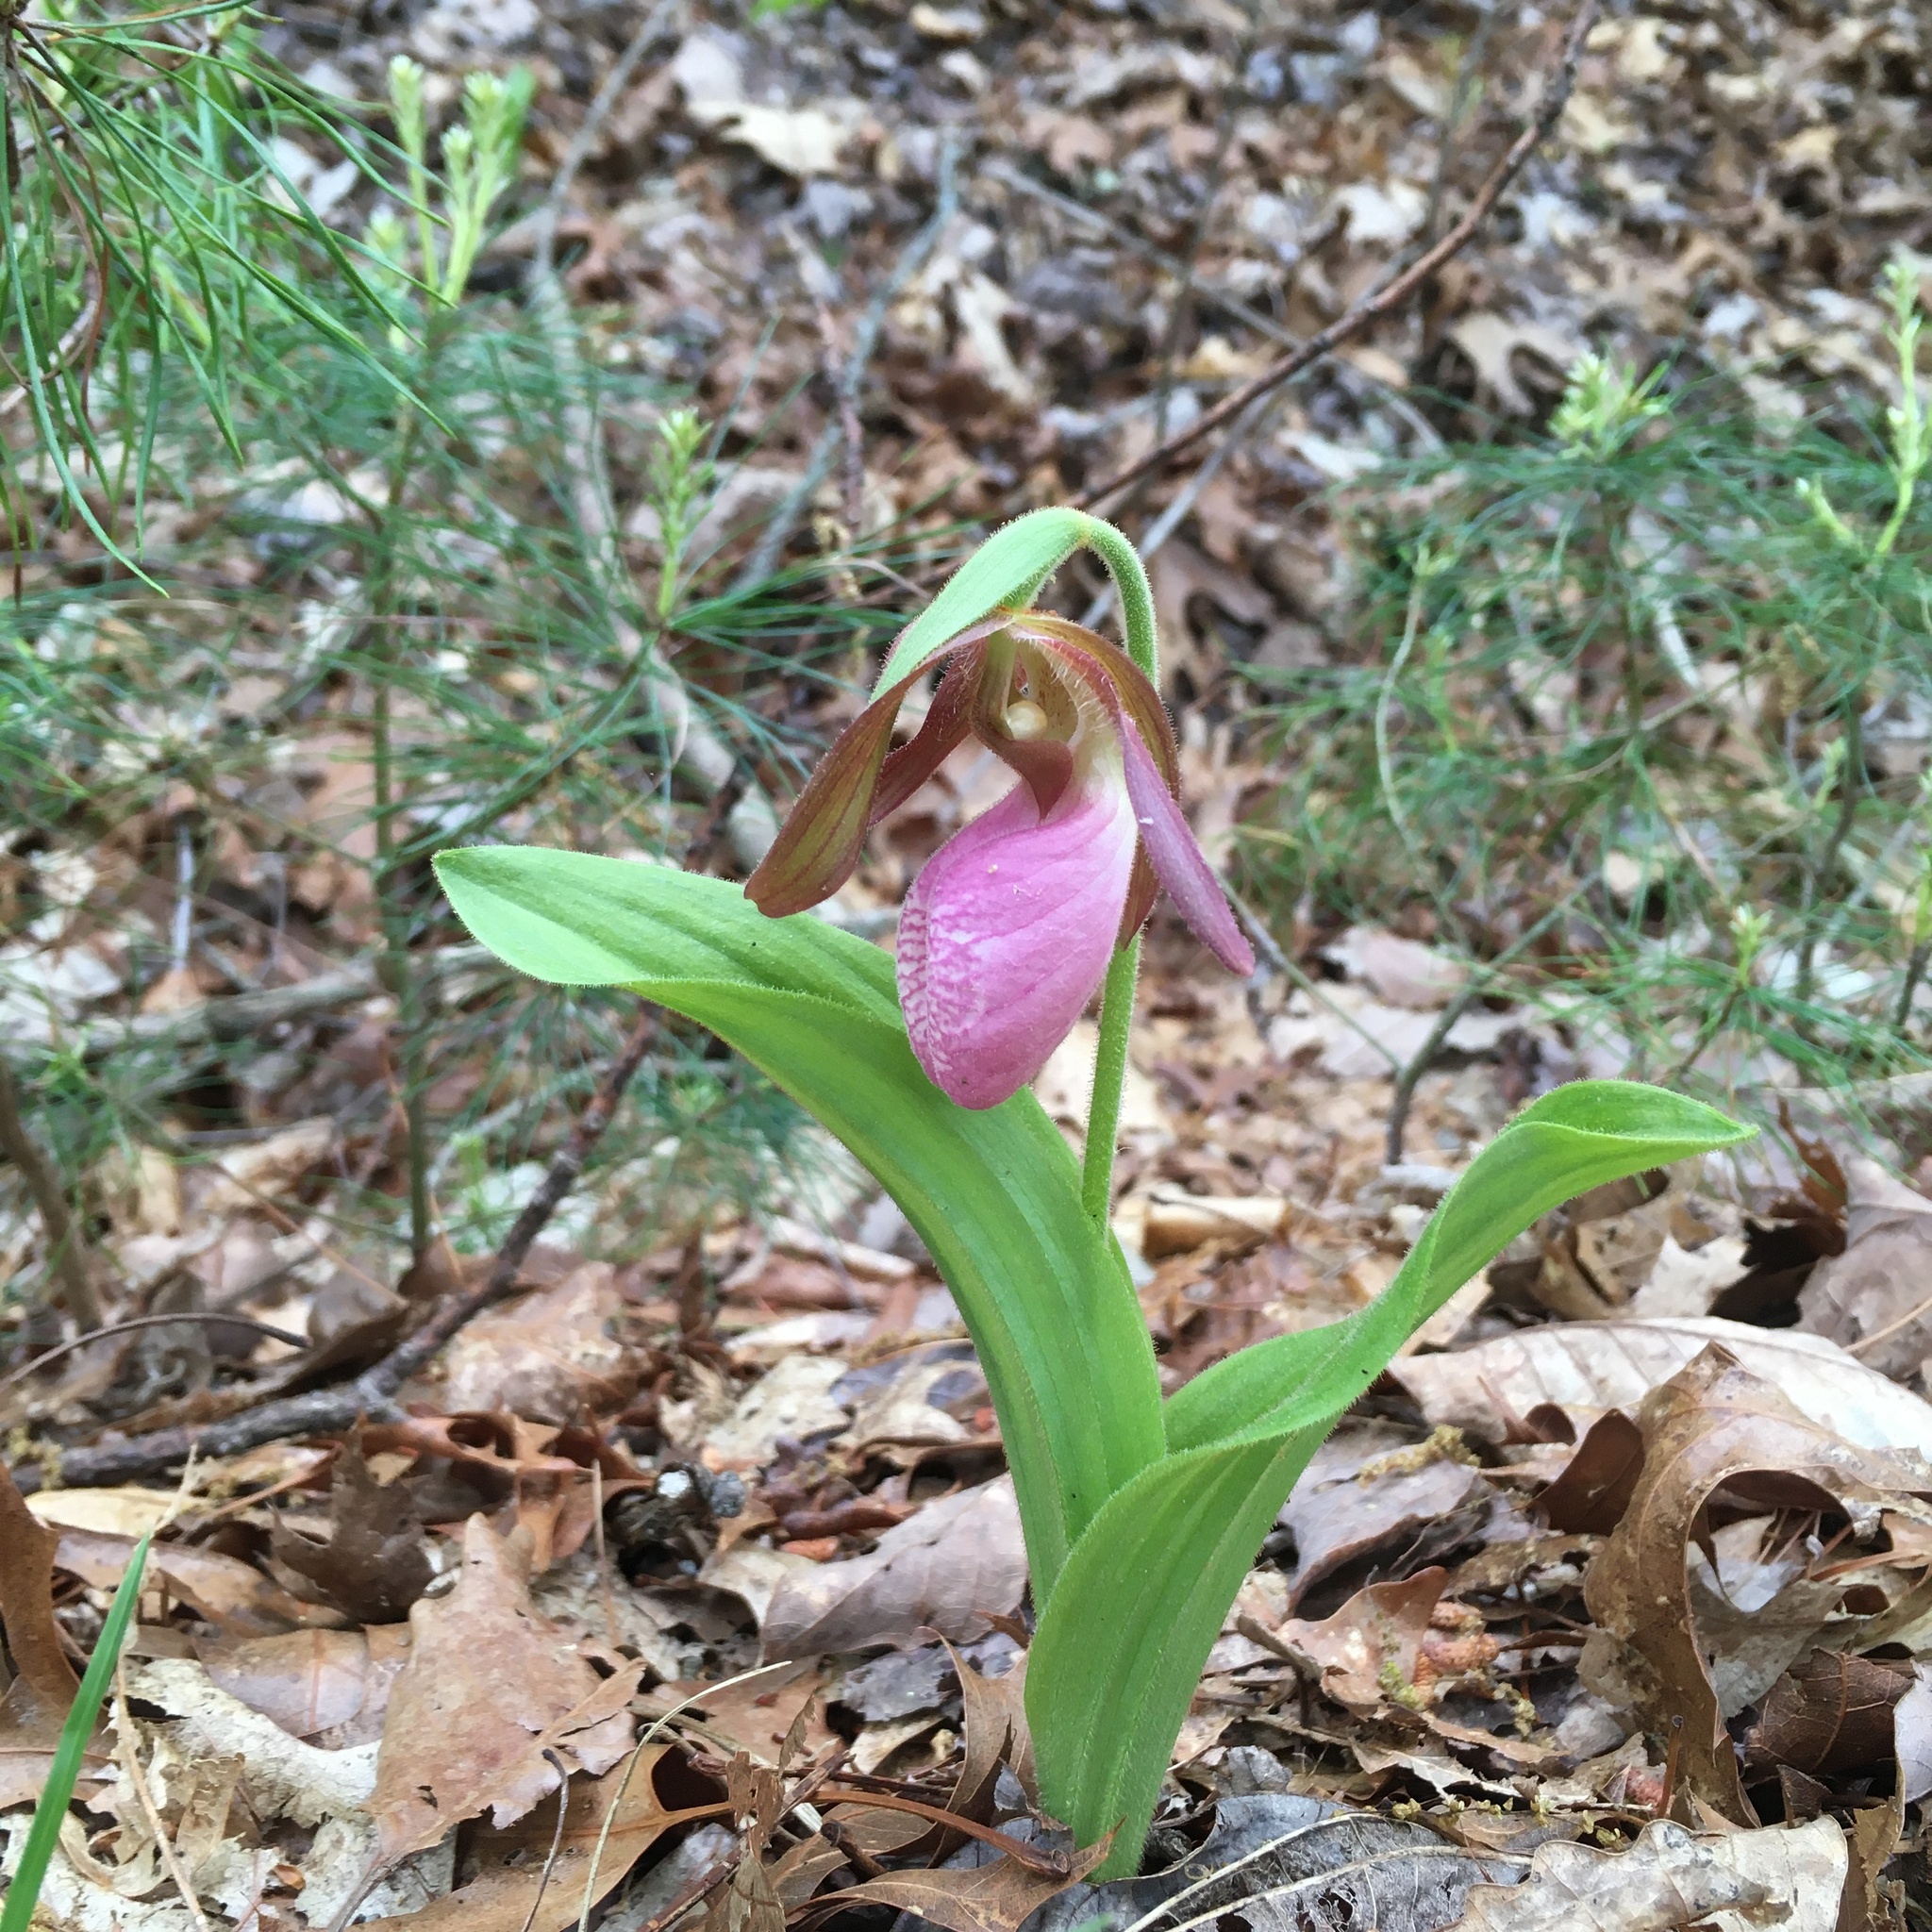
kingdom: Plantae
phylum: Tracheophyta
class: Liliopsida
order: Asparagales
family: Orchidaceae
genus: Cypripedium
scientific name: Cypripedium acaule
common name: Pink lady's-slipper
